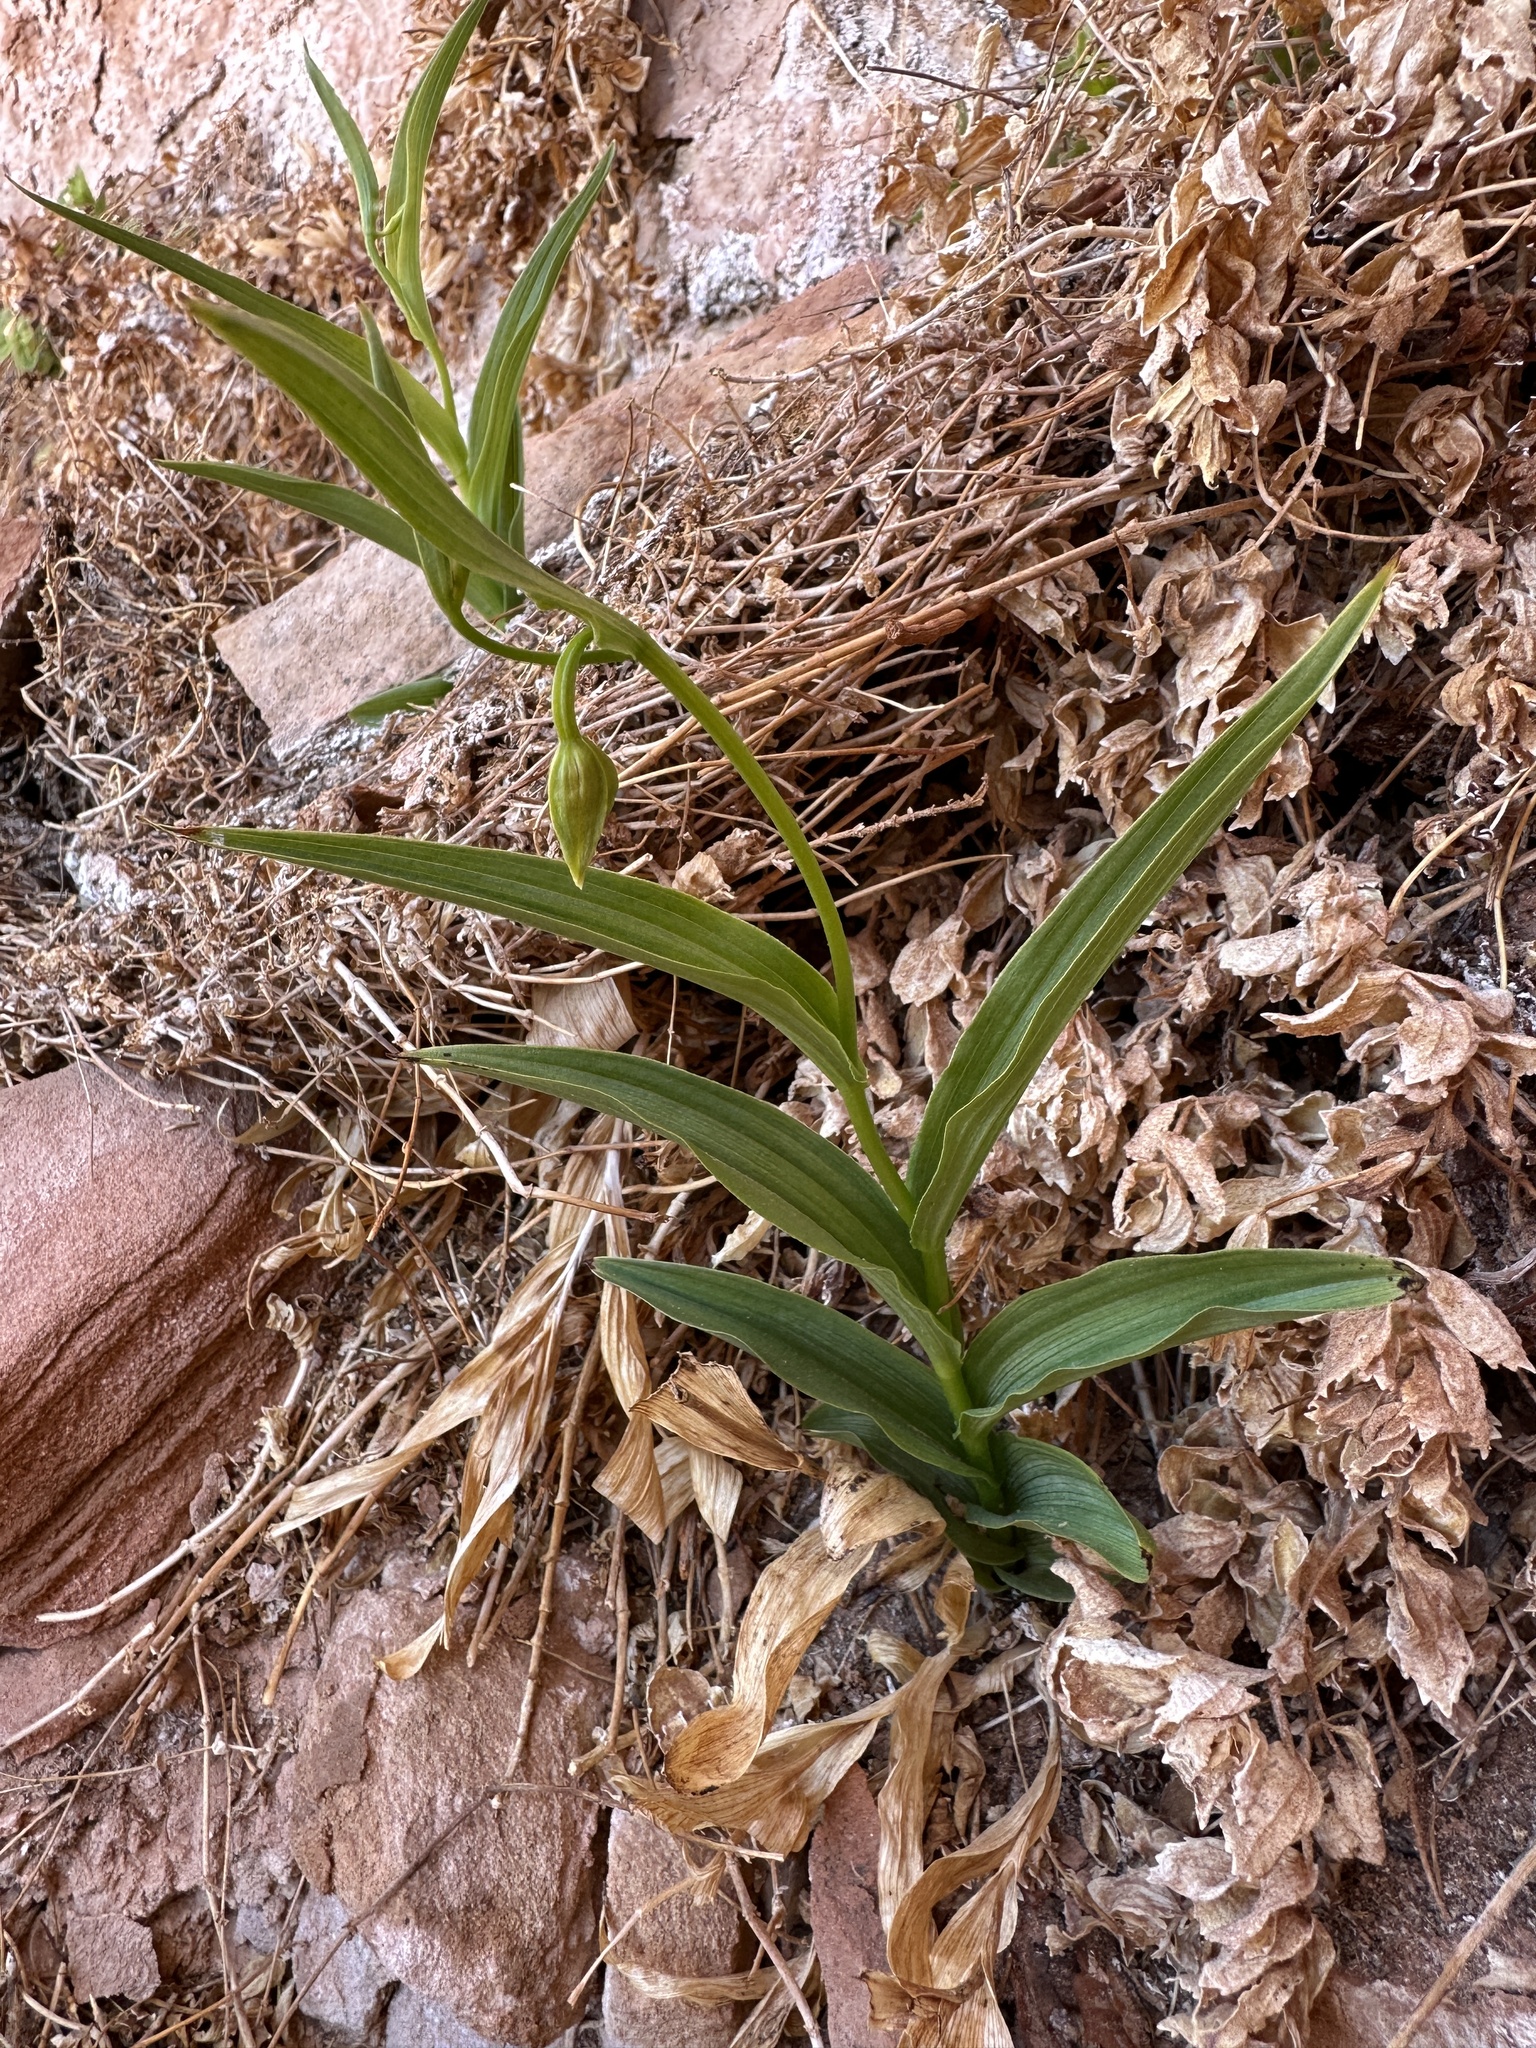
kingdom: Plantae
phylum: Tracheophyta
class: Liliopsida
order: Asparagales
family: Orchidaceae
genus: Epipactis
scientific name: Epipactis gigantea
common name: Chatterbox
